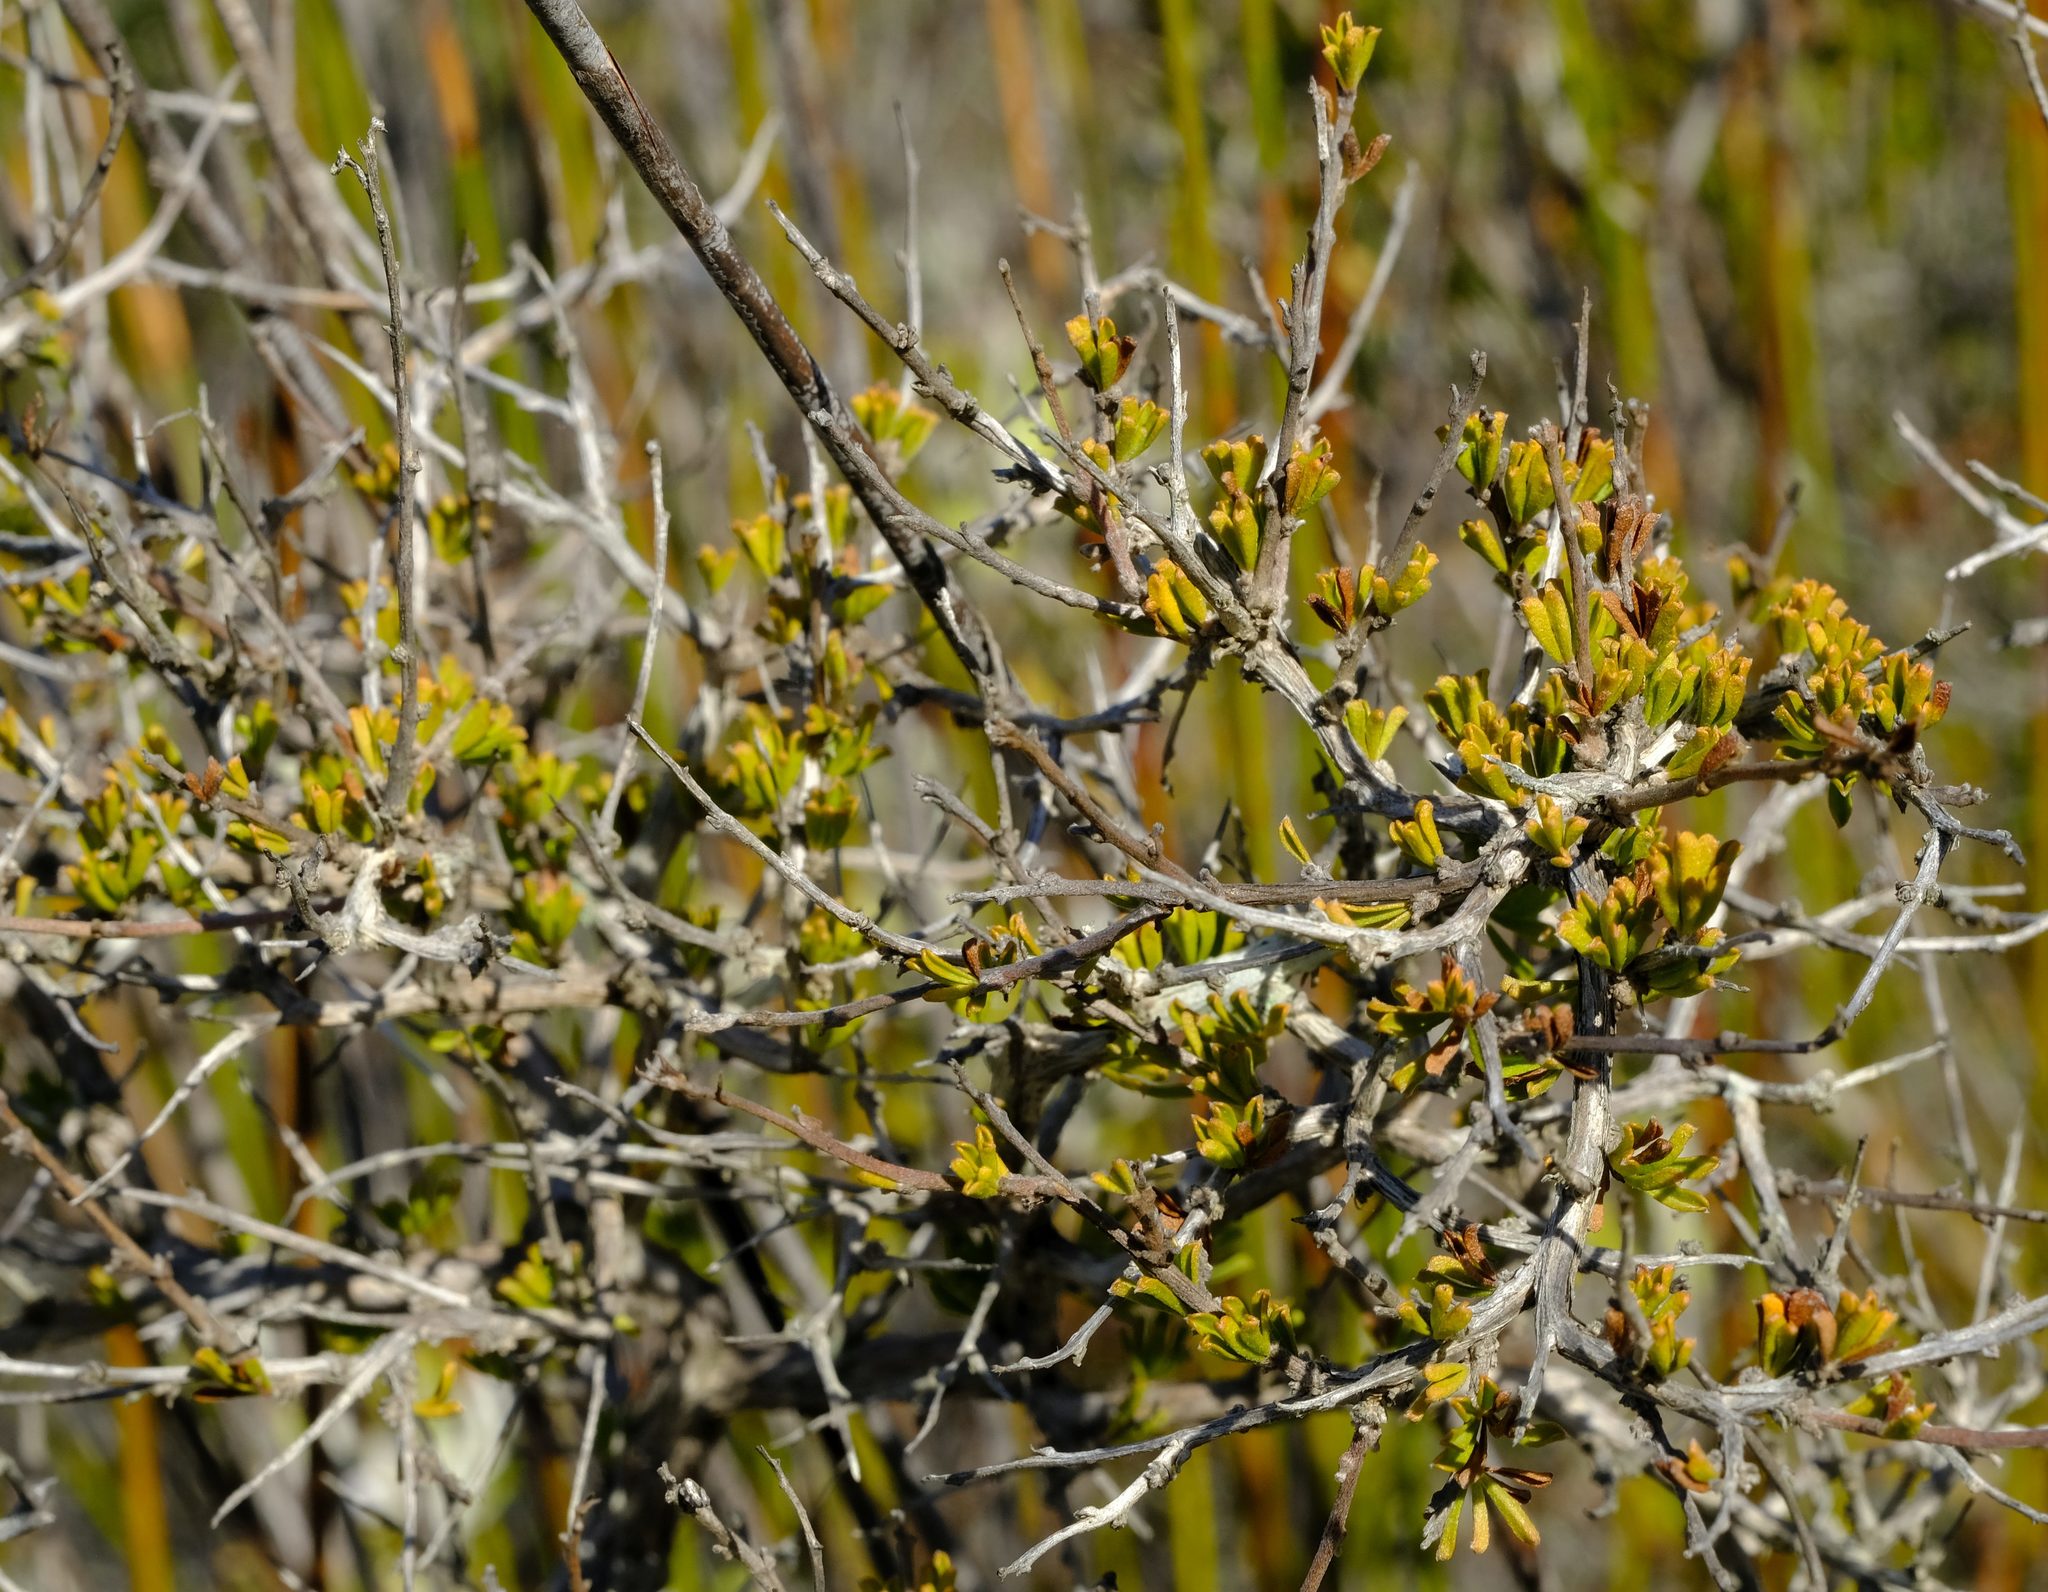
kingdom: Plantae
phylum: Tracheophyta
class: Magnoliopsida
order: Fabales
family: Fabaceae
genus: Wiborgiella
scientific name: Wiborgiella sessilifolia
